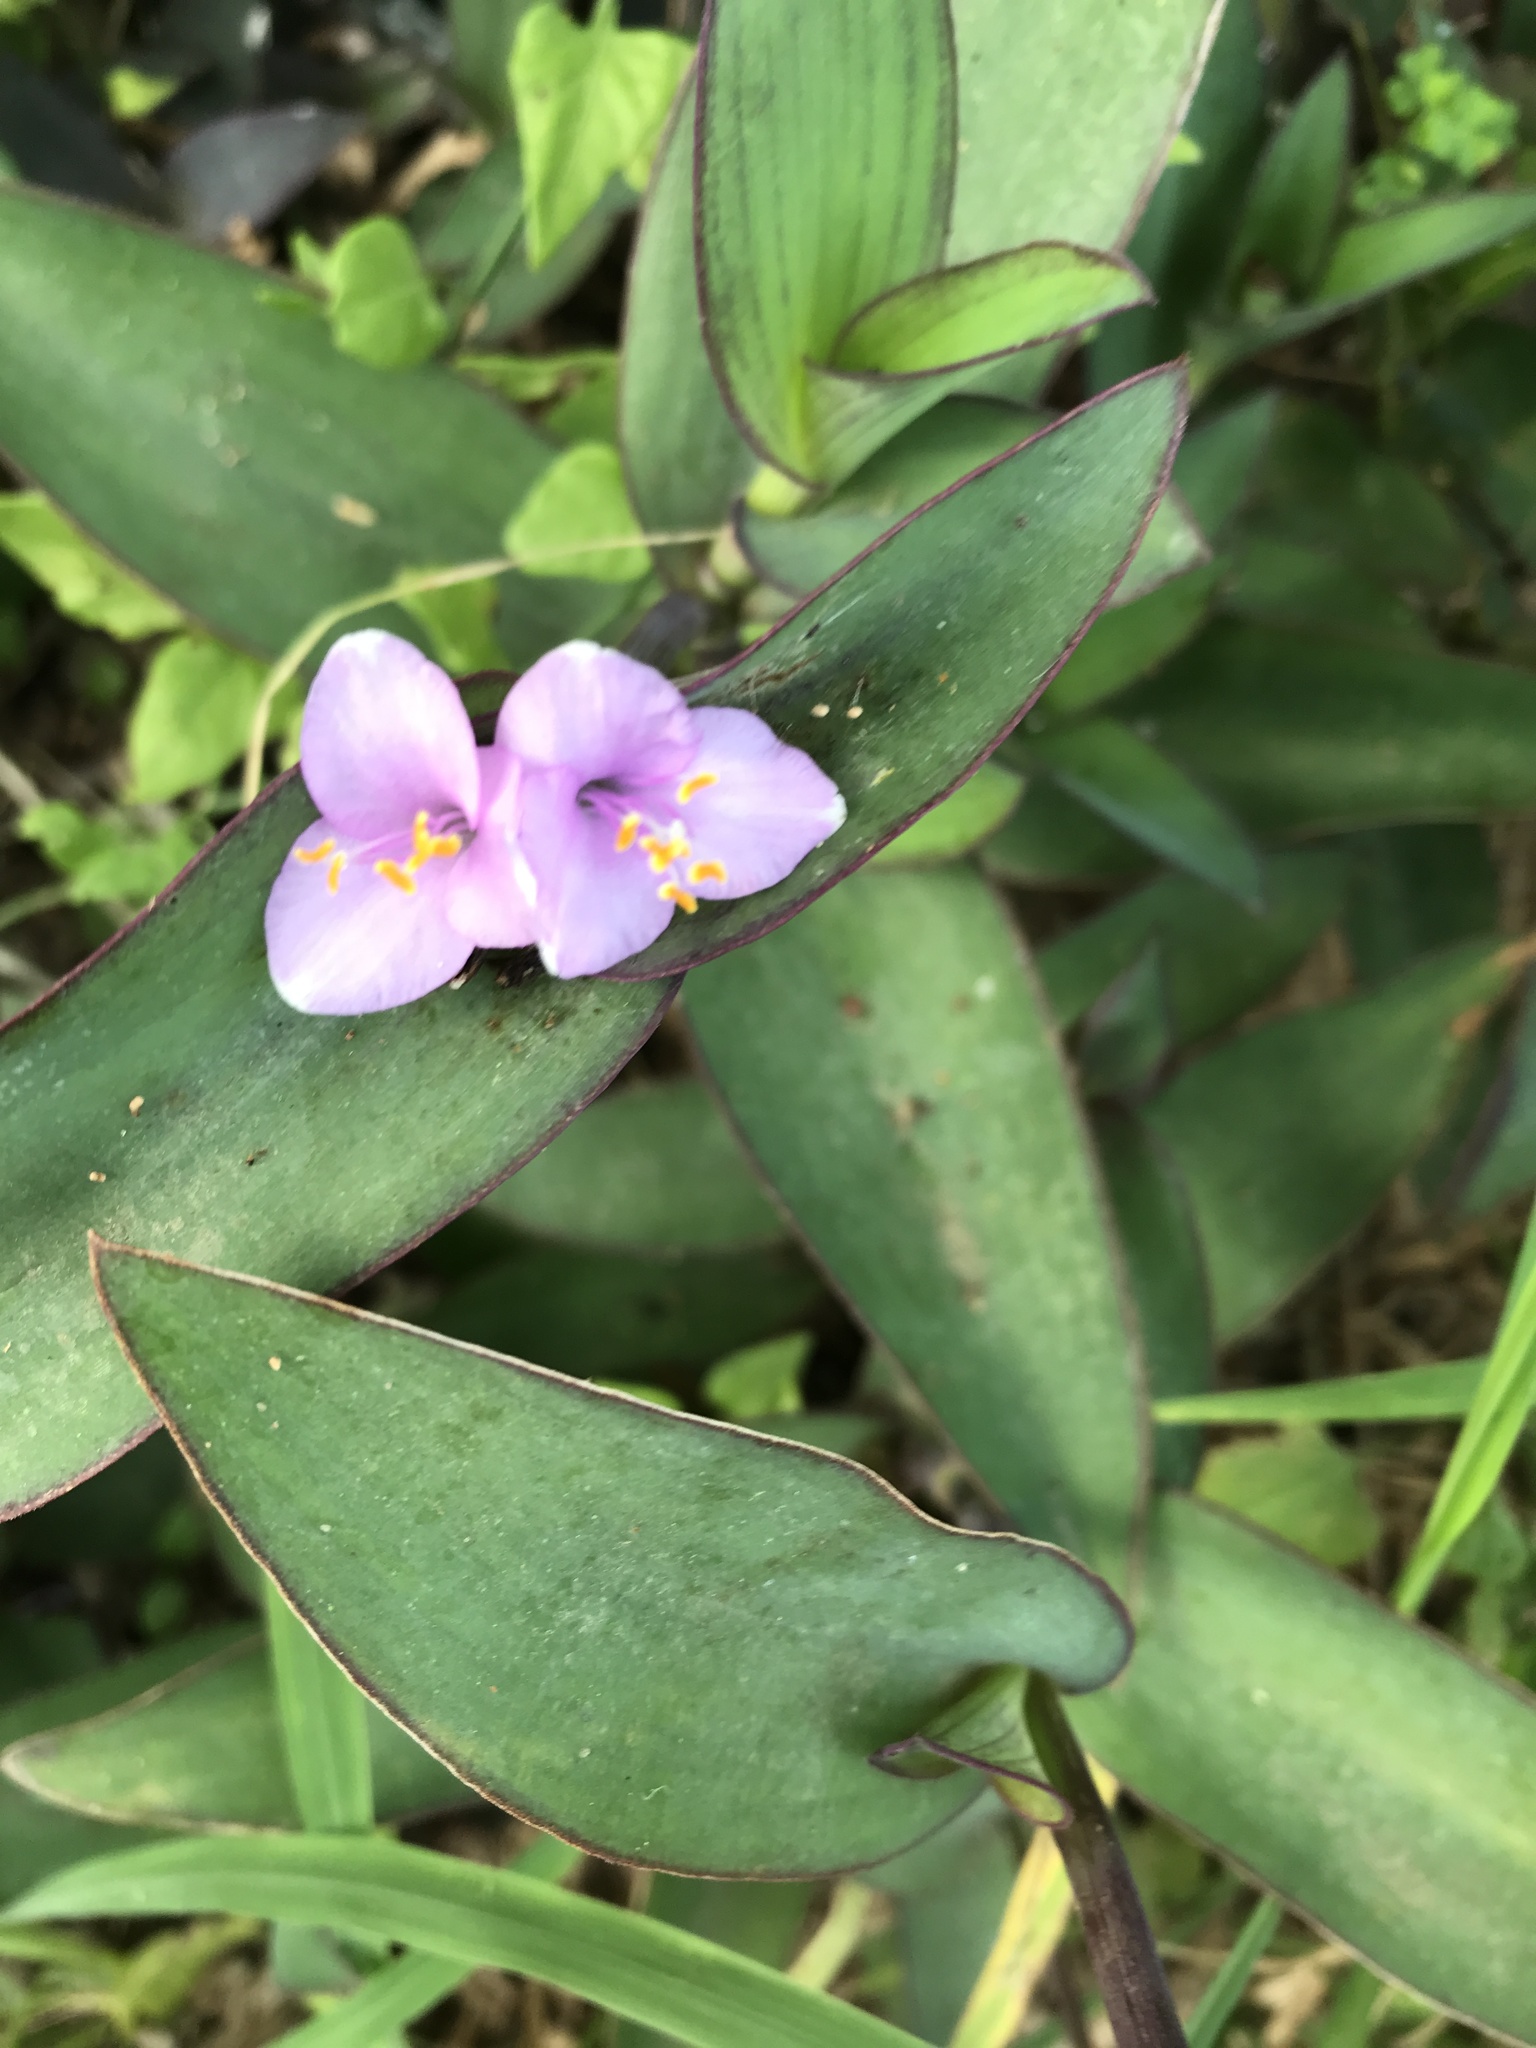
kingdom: Plantae
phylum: Tracheophyta
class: Liliopsida
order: Commelinales
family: Commelinaceae
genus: Tradescantia
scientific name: Tradescantia pallida
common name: Purpleheart
